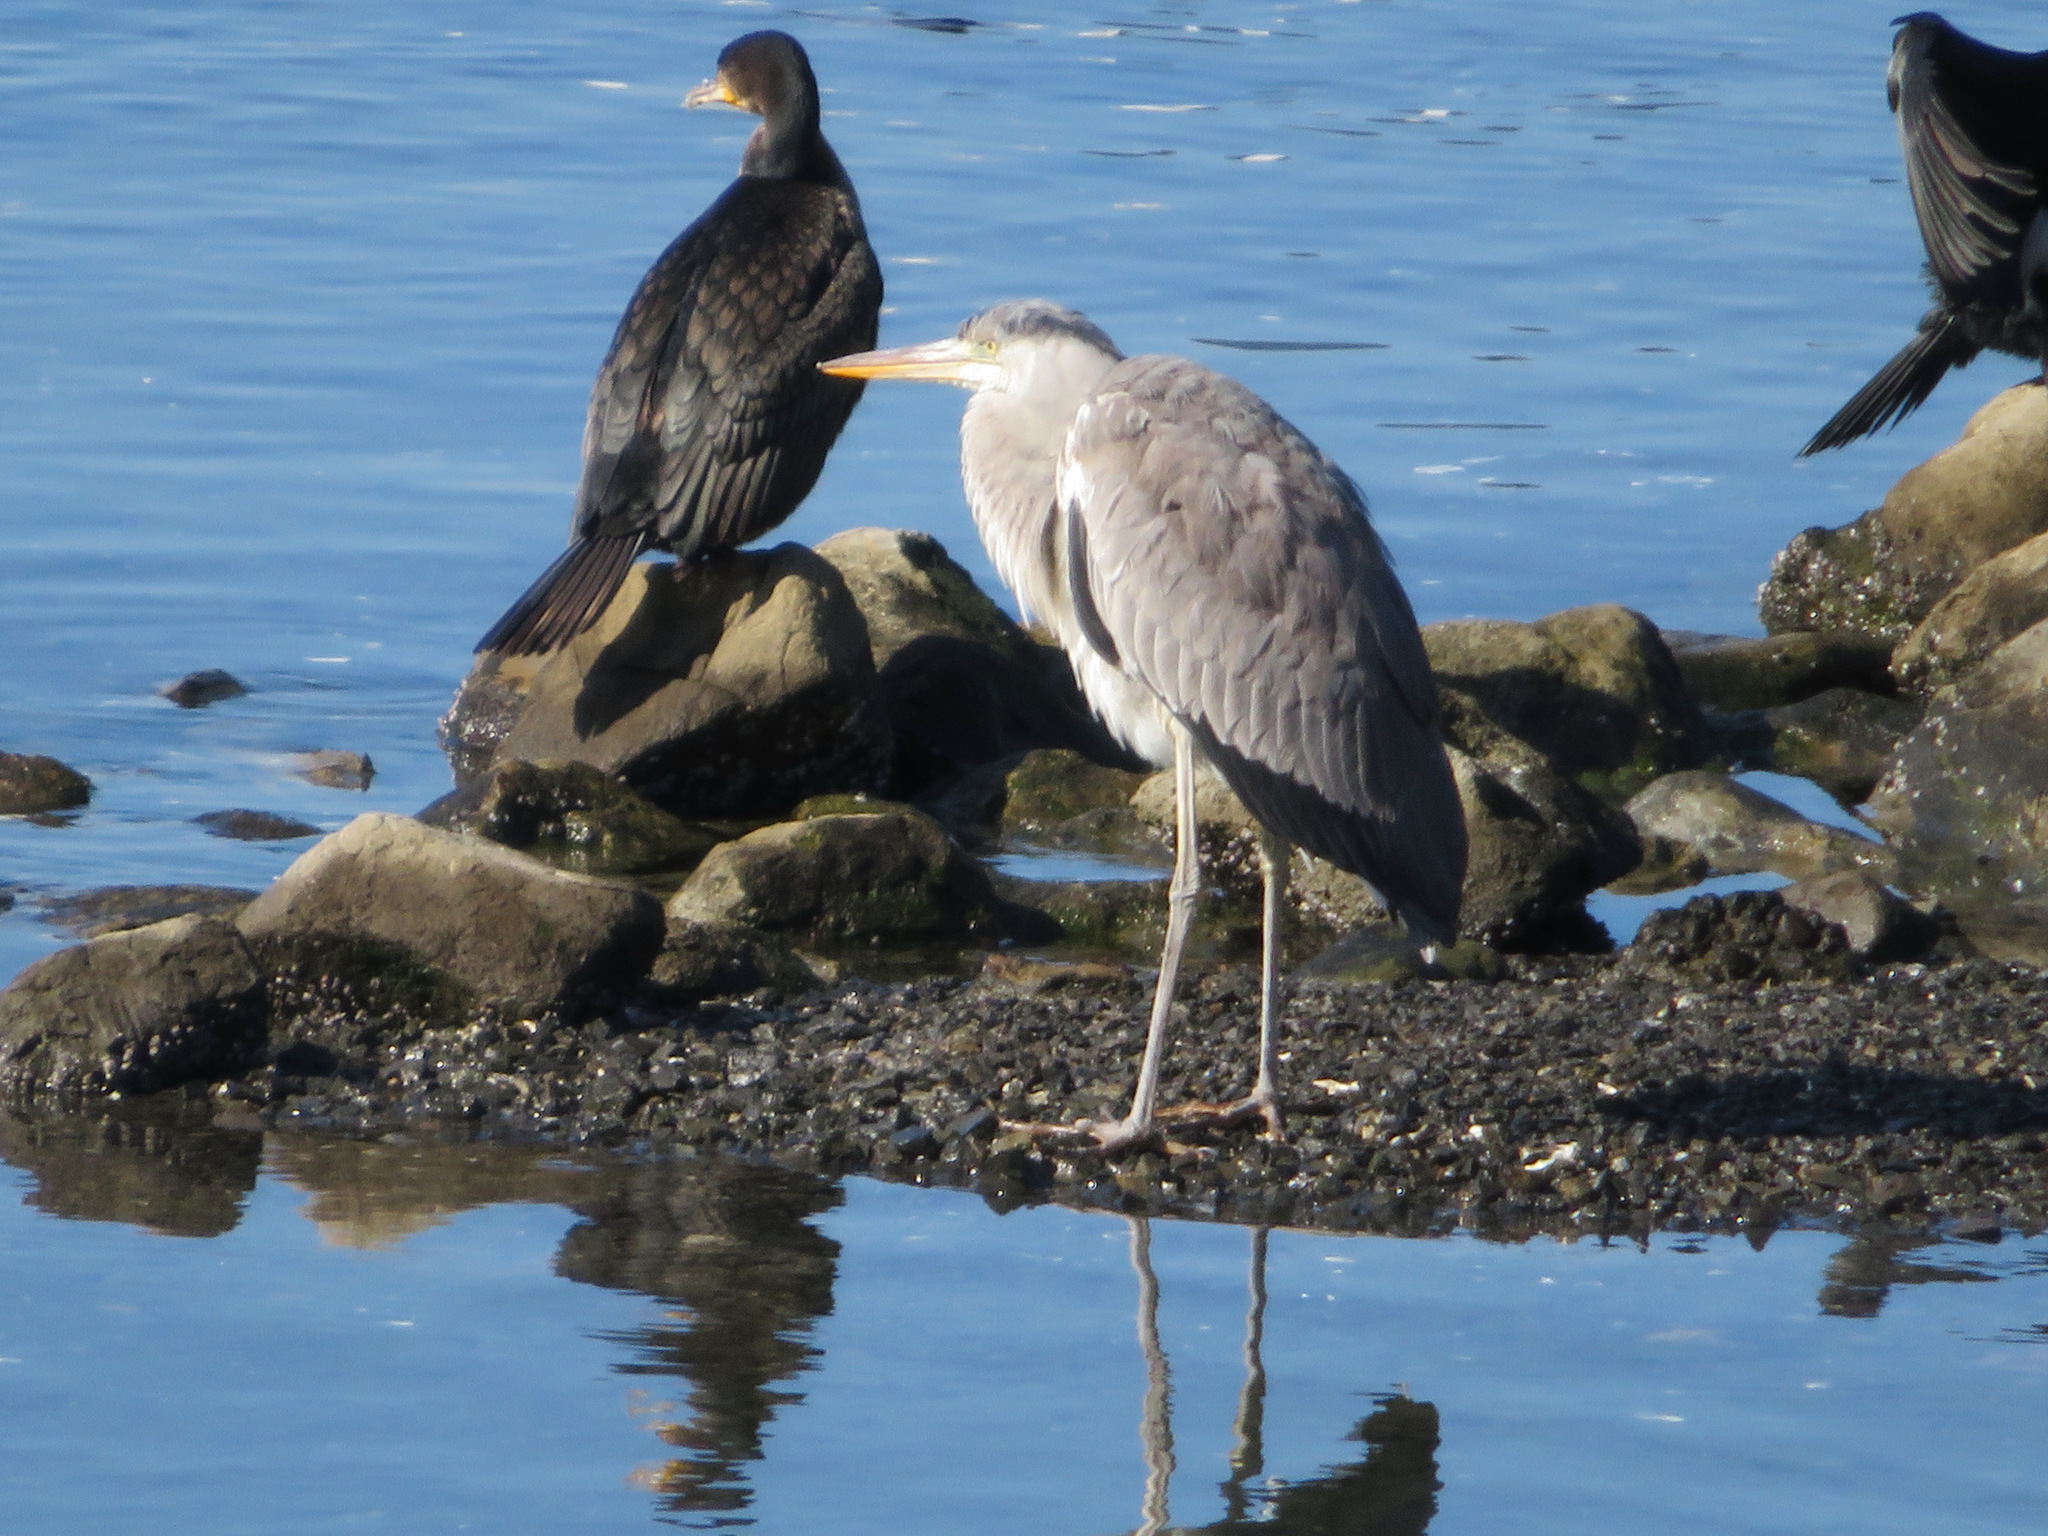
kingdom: Animalia
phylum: Chordata
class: Aves
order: Pelecaniformes
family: Ardeidae
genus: Ardea
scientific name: Ardea cinerea
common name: Grey heron
